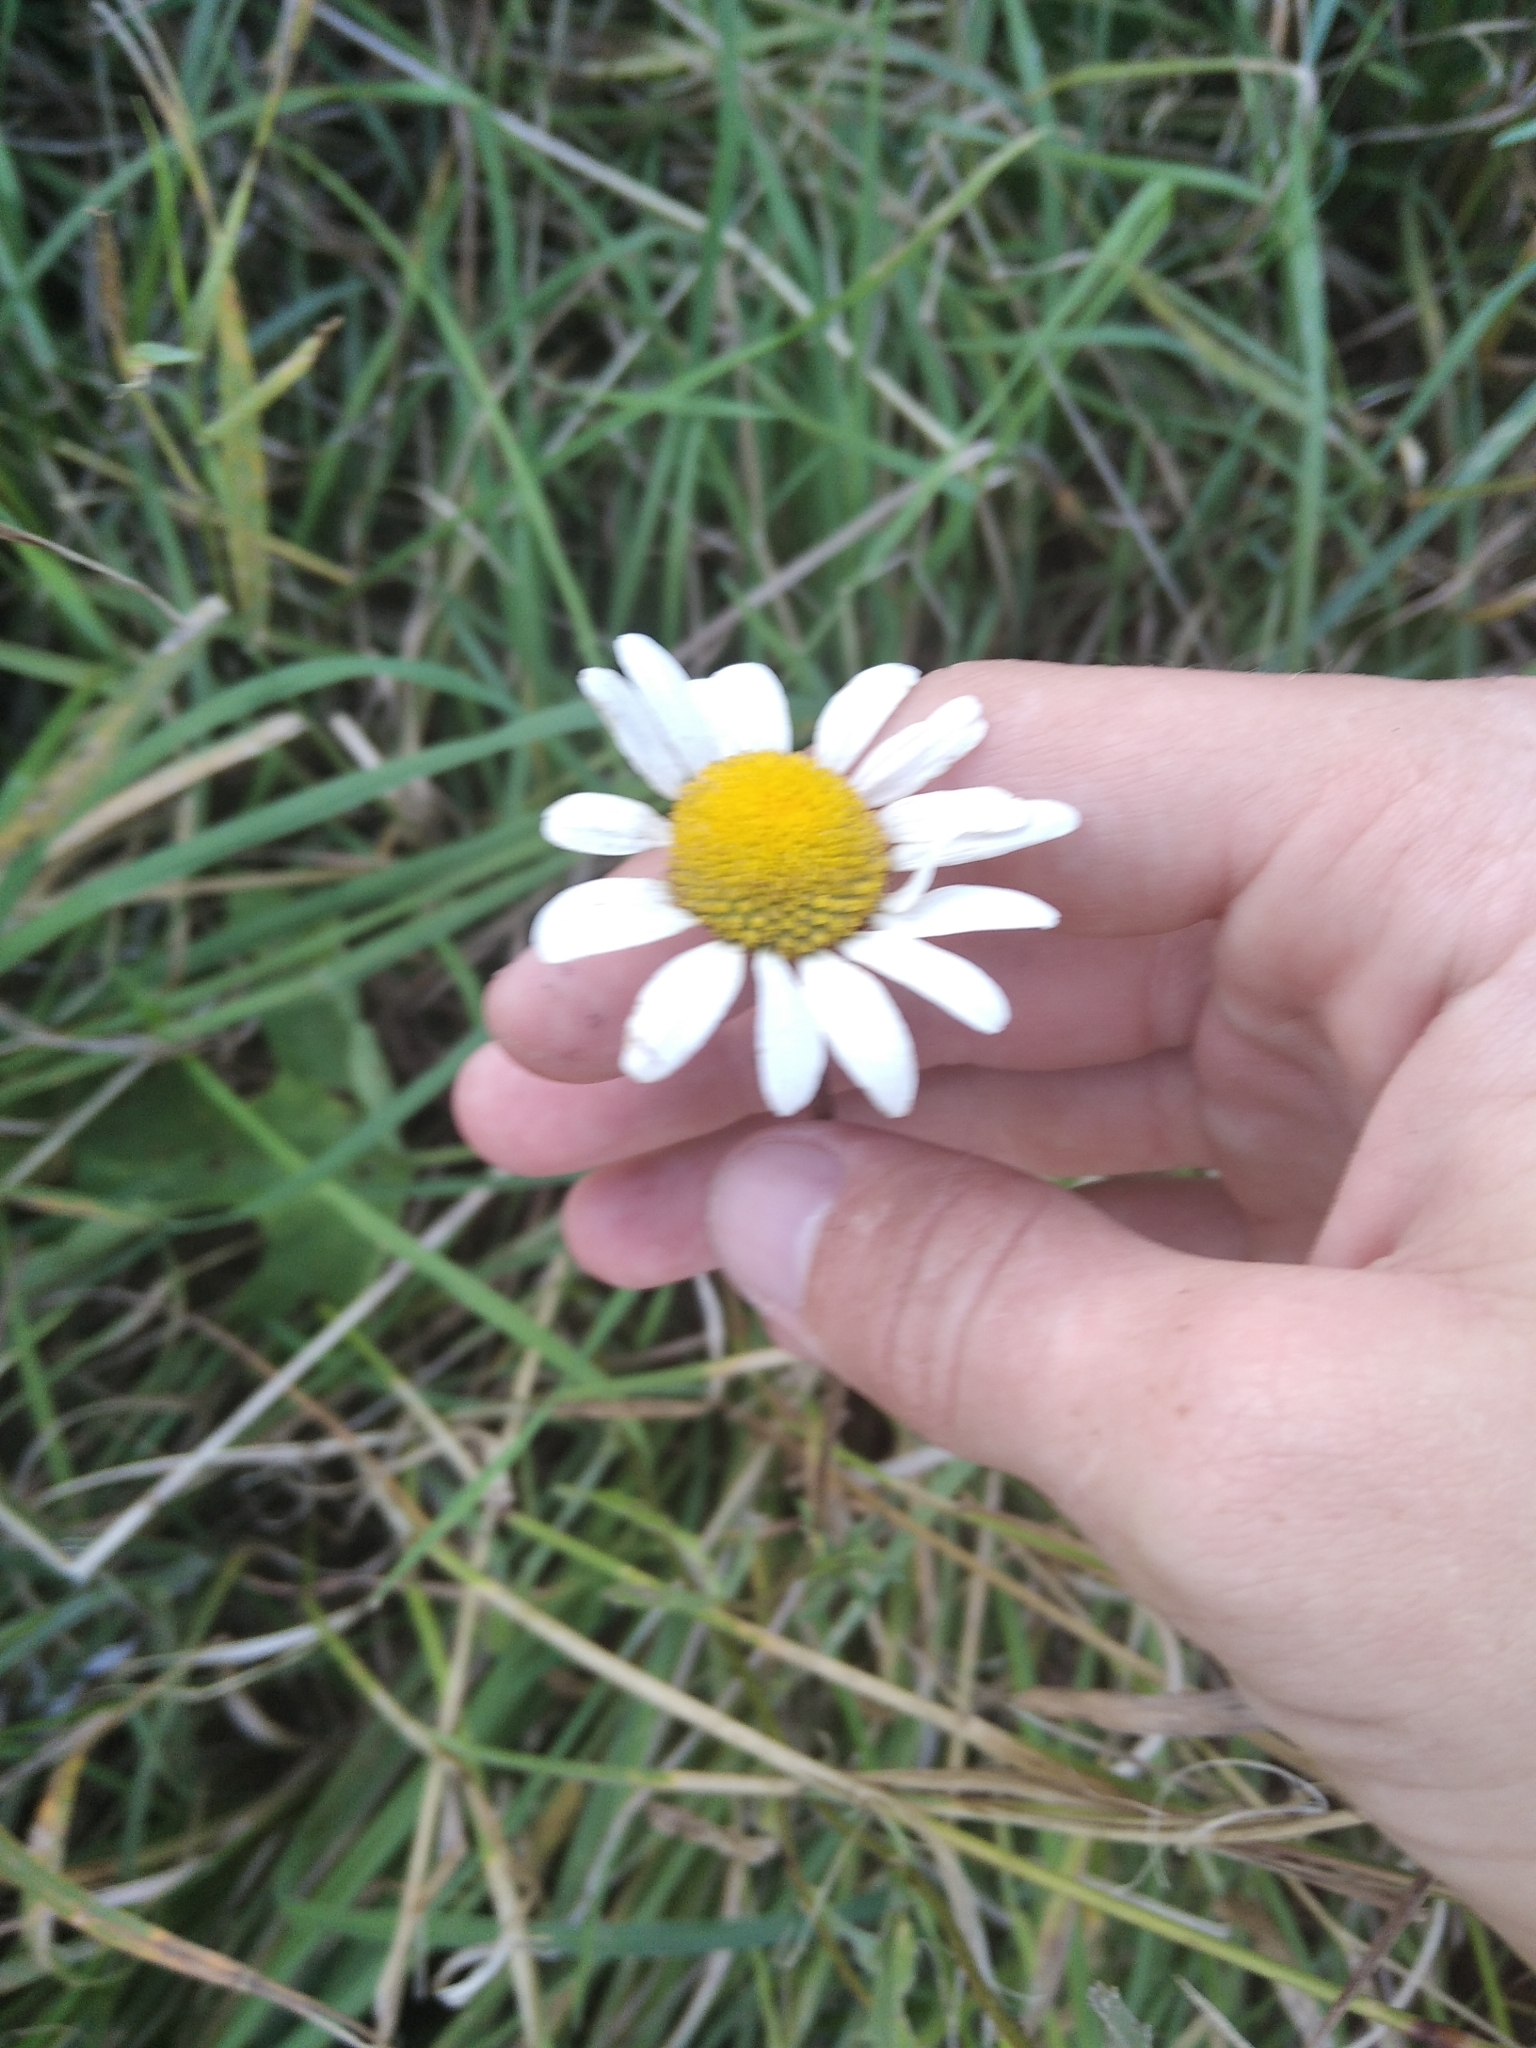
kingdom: Plantae
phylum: Tracheophyta
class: Magnoliopsida
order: Asterales
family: Asteraceae
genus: Leucanthemum
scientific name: Leucanthemum vulgare
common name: Oxeye daisy
